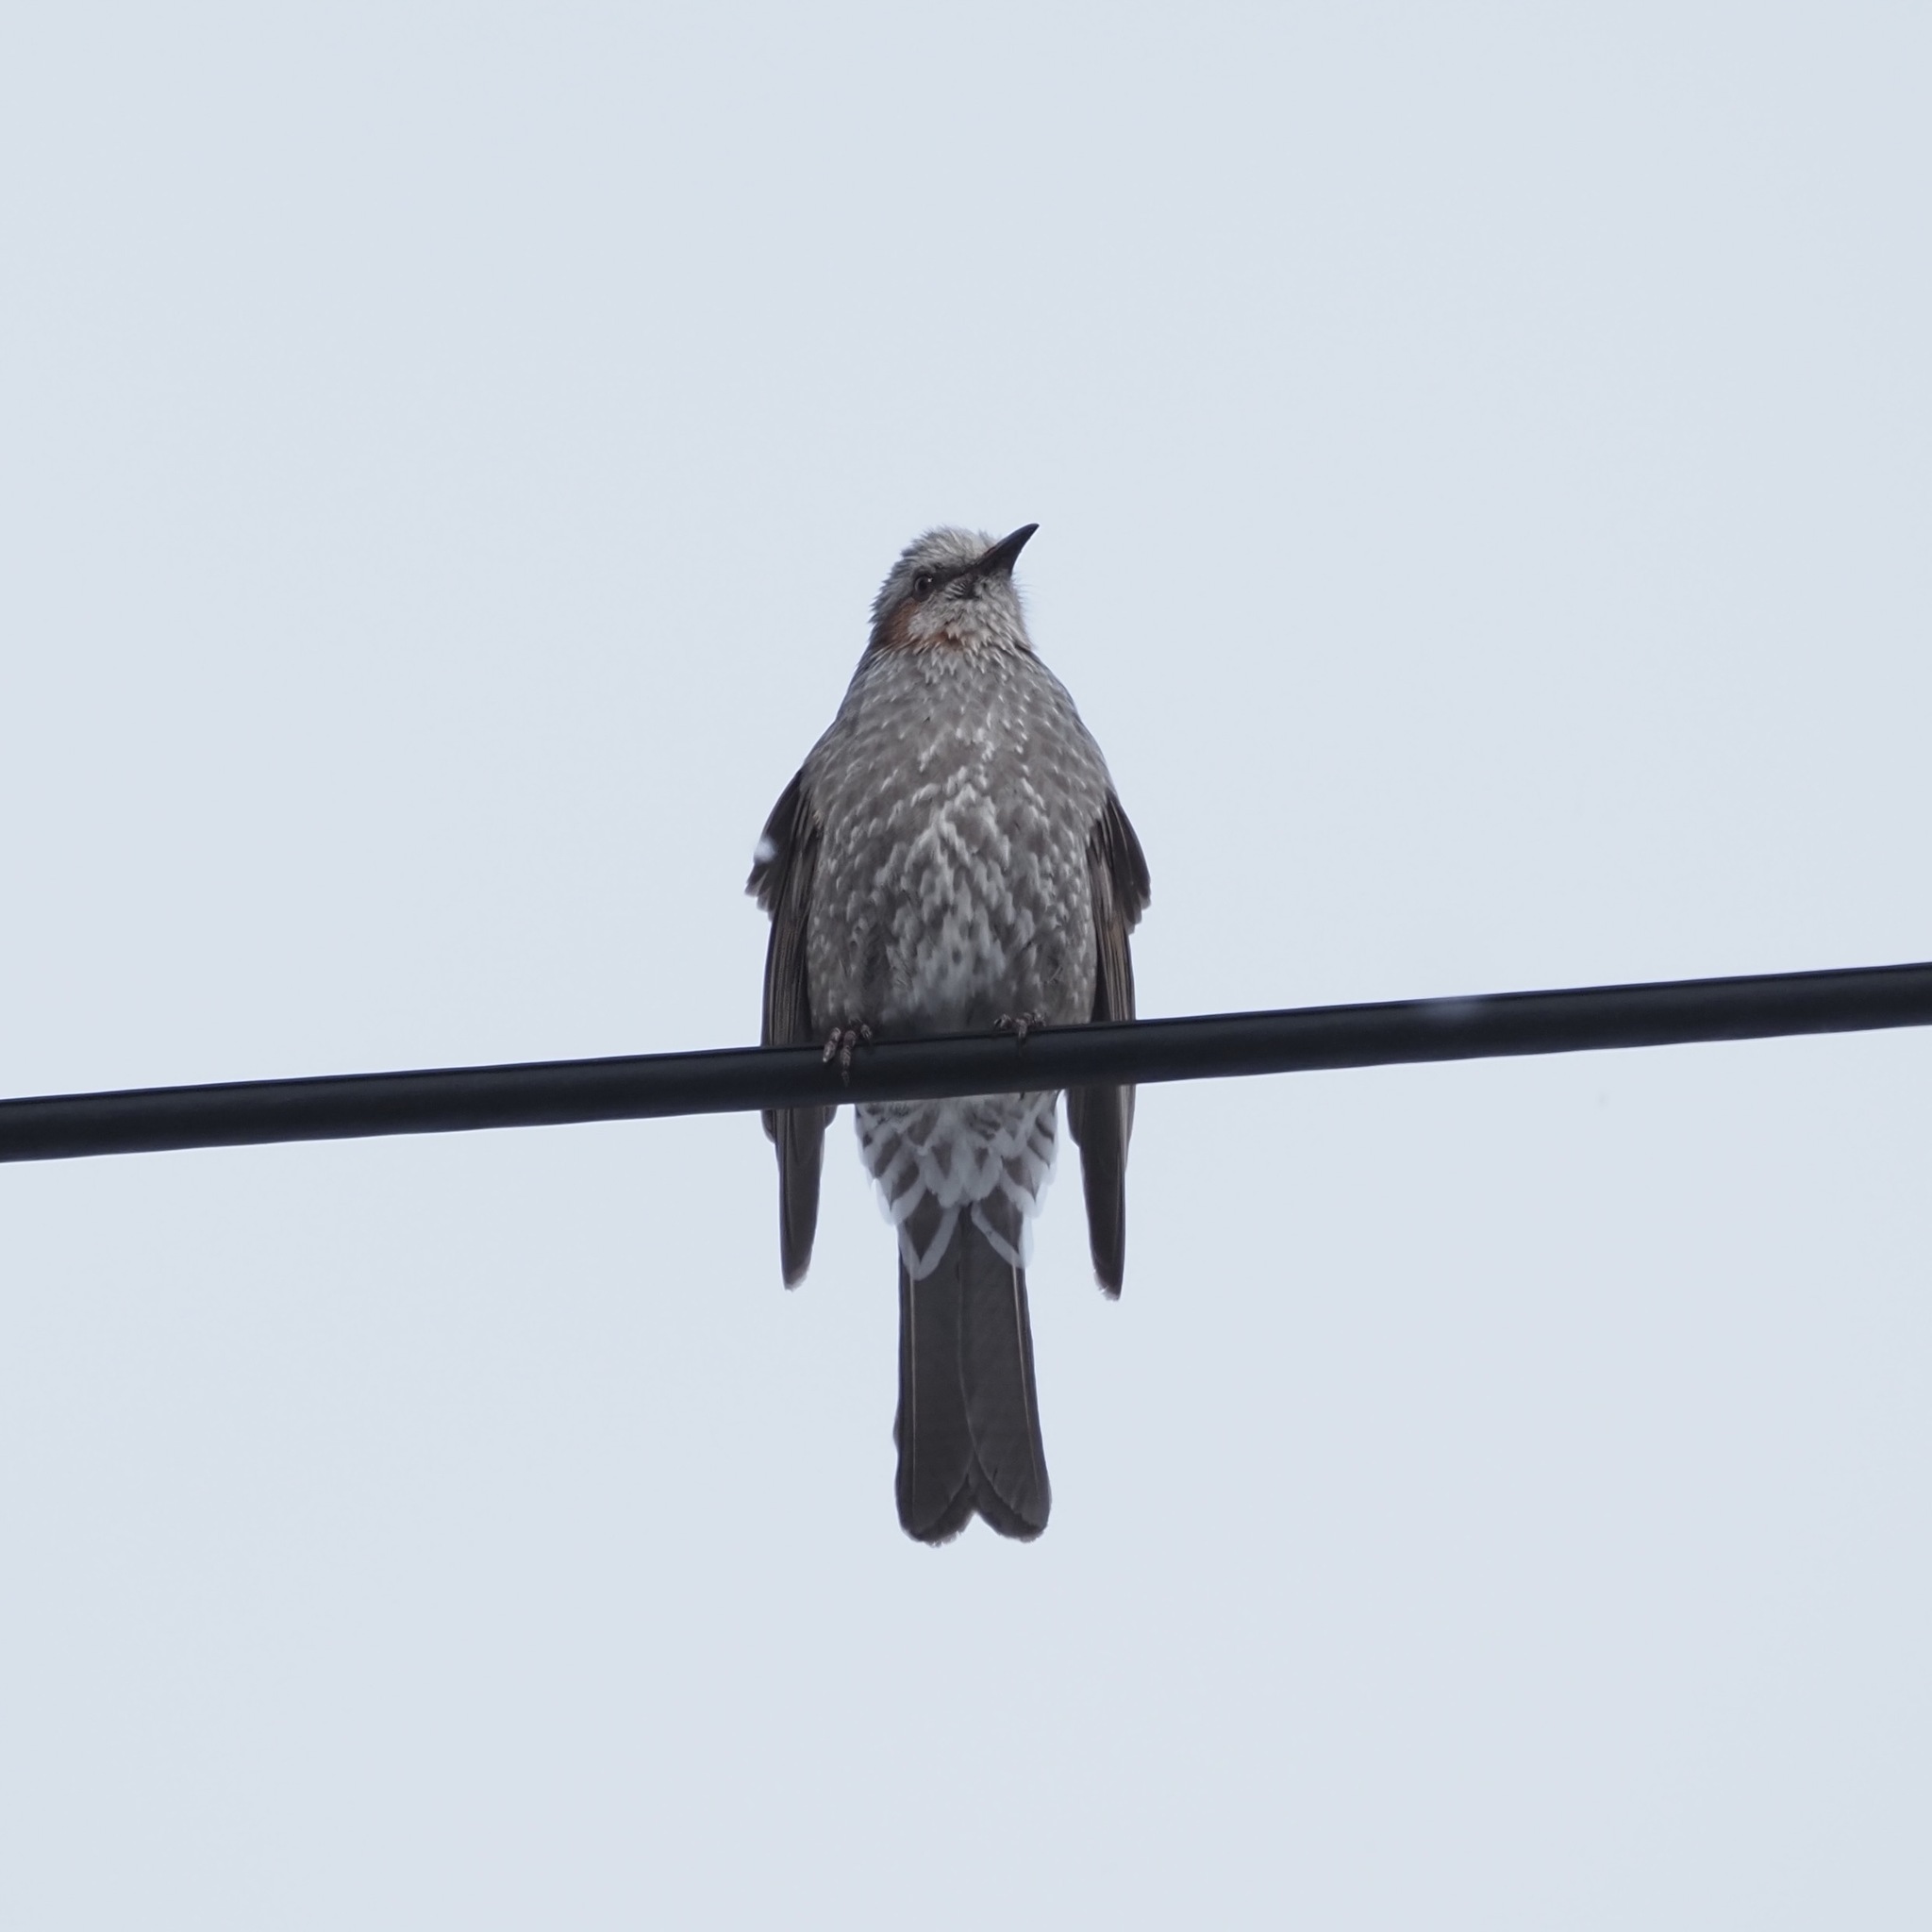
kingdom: Animalia
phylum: Chordata
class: Aves
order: Passeriformes
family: Pycnonotidae
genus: Hypsipetes
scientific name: Hypsipetes amaurotis
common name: Brown-eared bulbul
